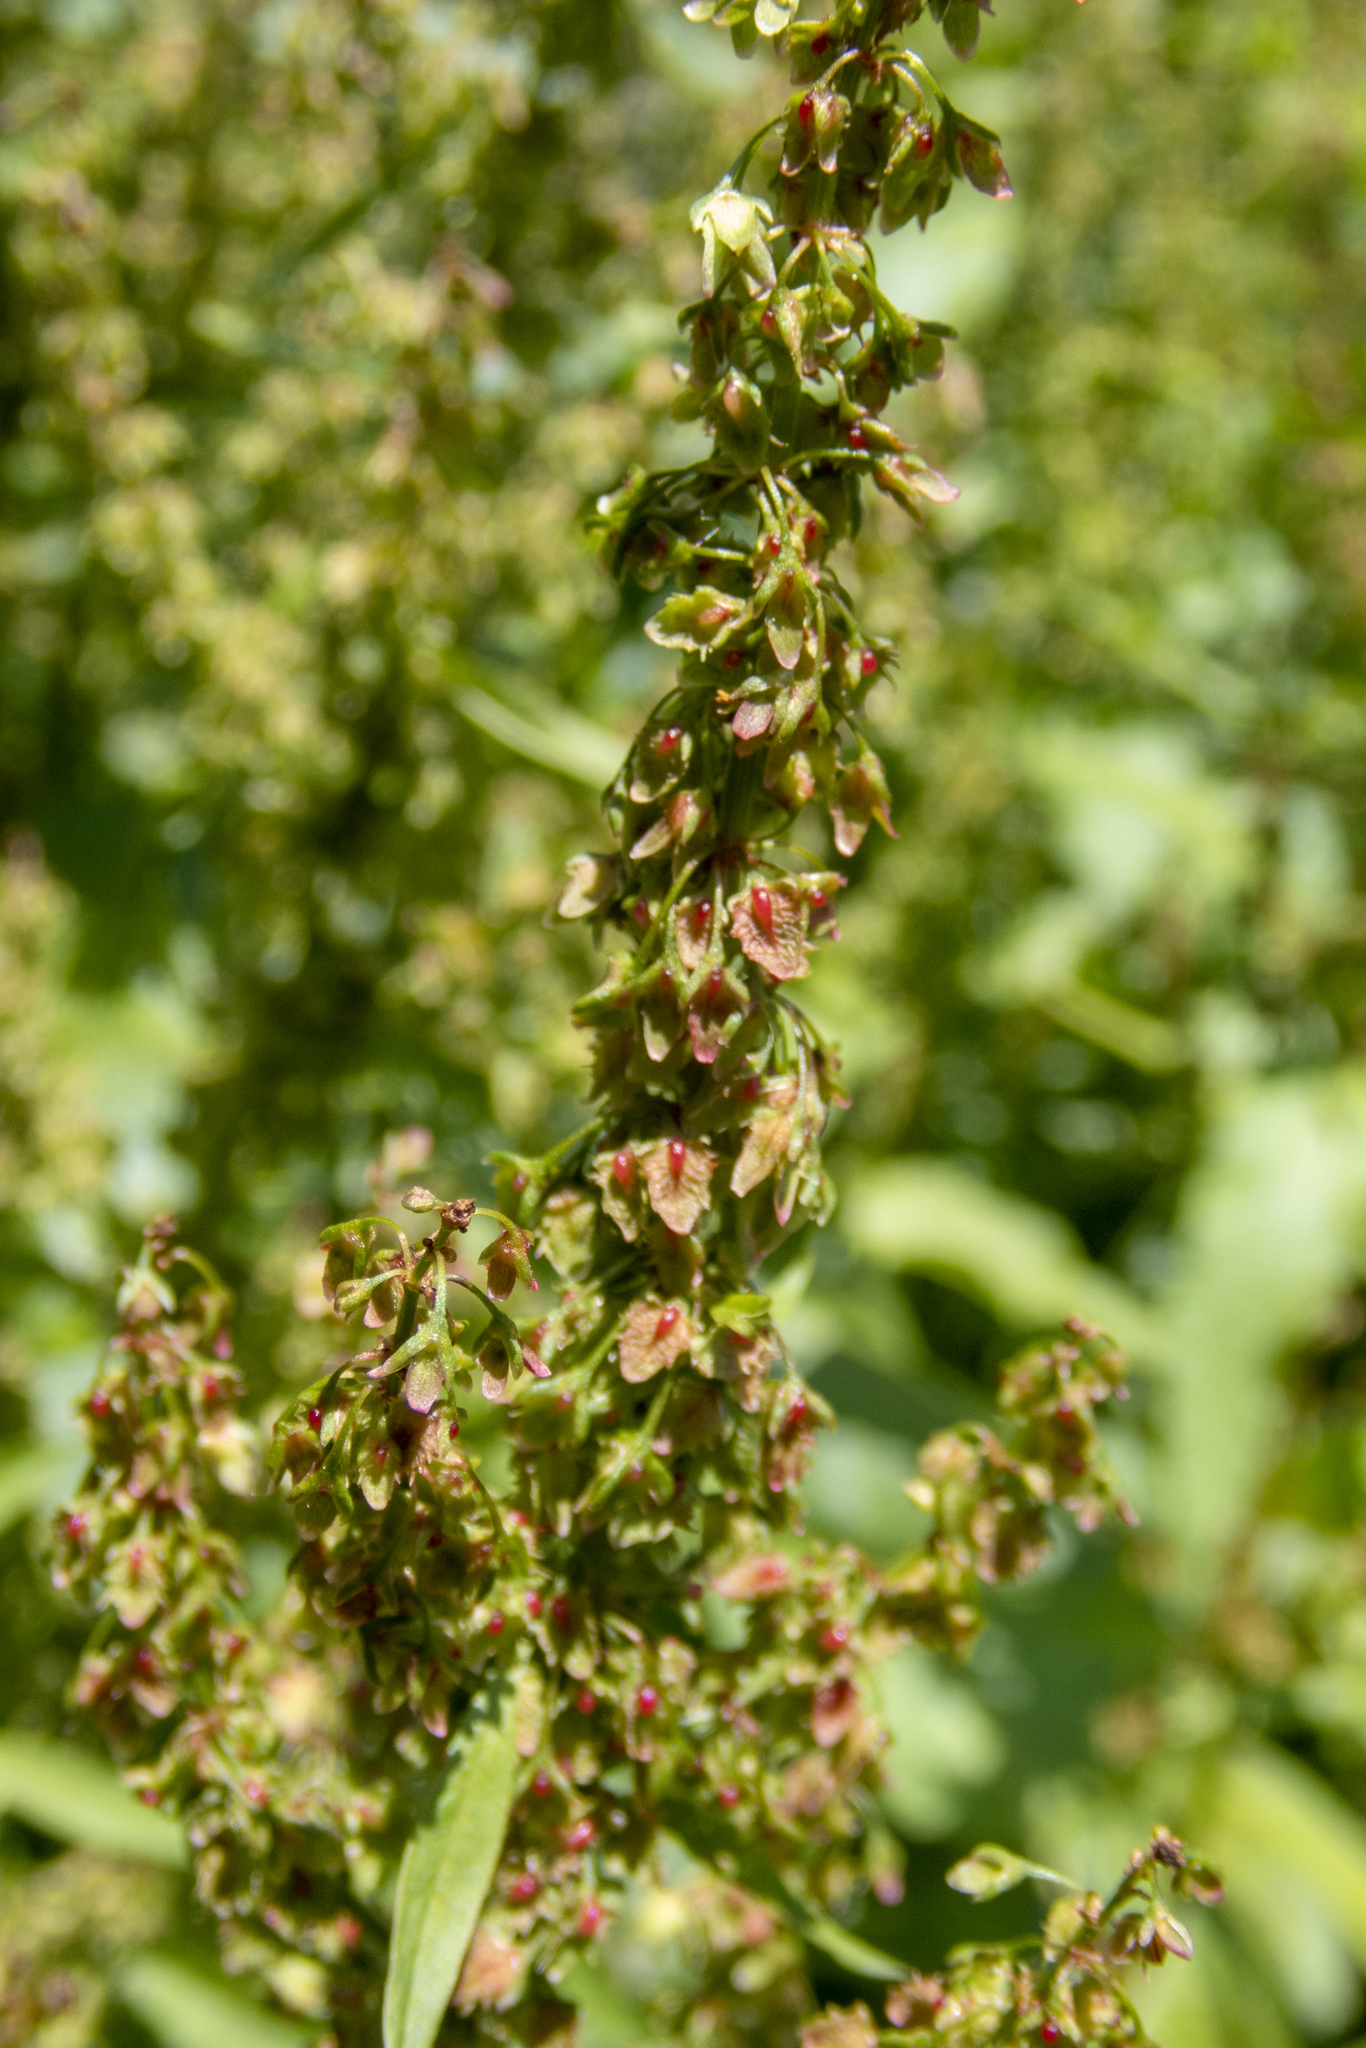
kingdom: Plantae
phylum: Tracheophyta
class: Magnoliopsida
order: Caryophyllales
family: Polygonaceae
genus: Rumex
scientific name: Rumex obtusifolius
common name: Bitter dock
